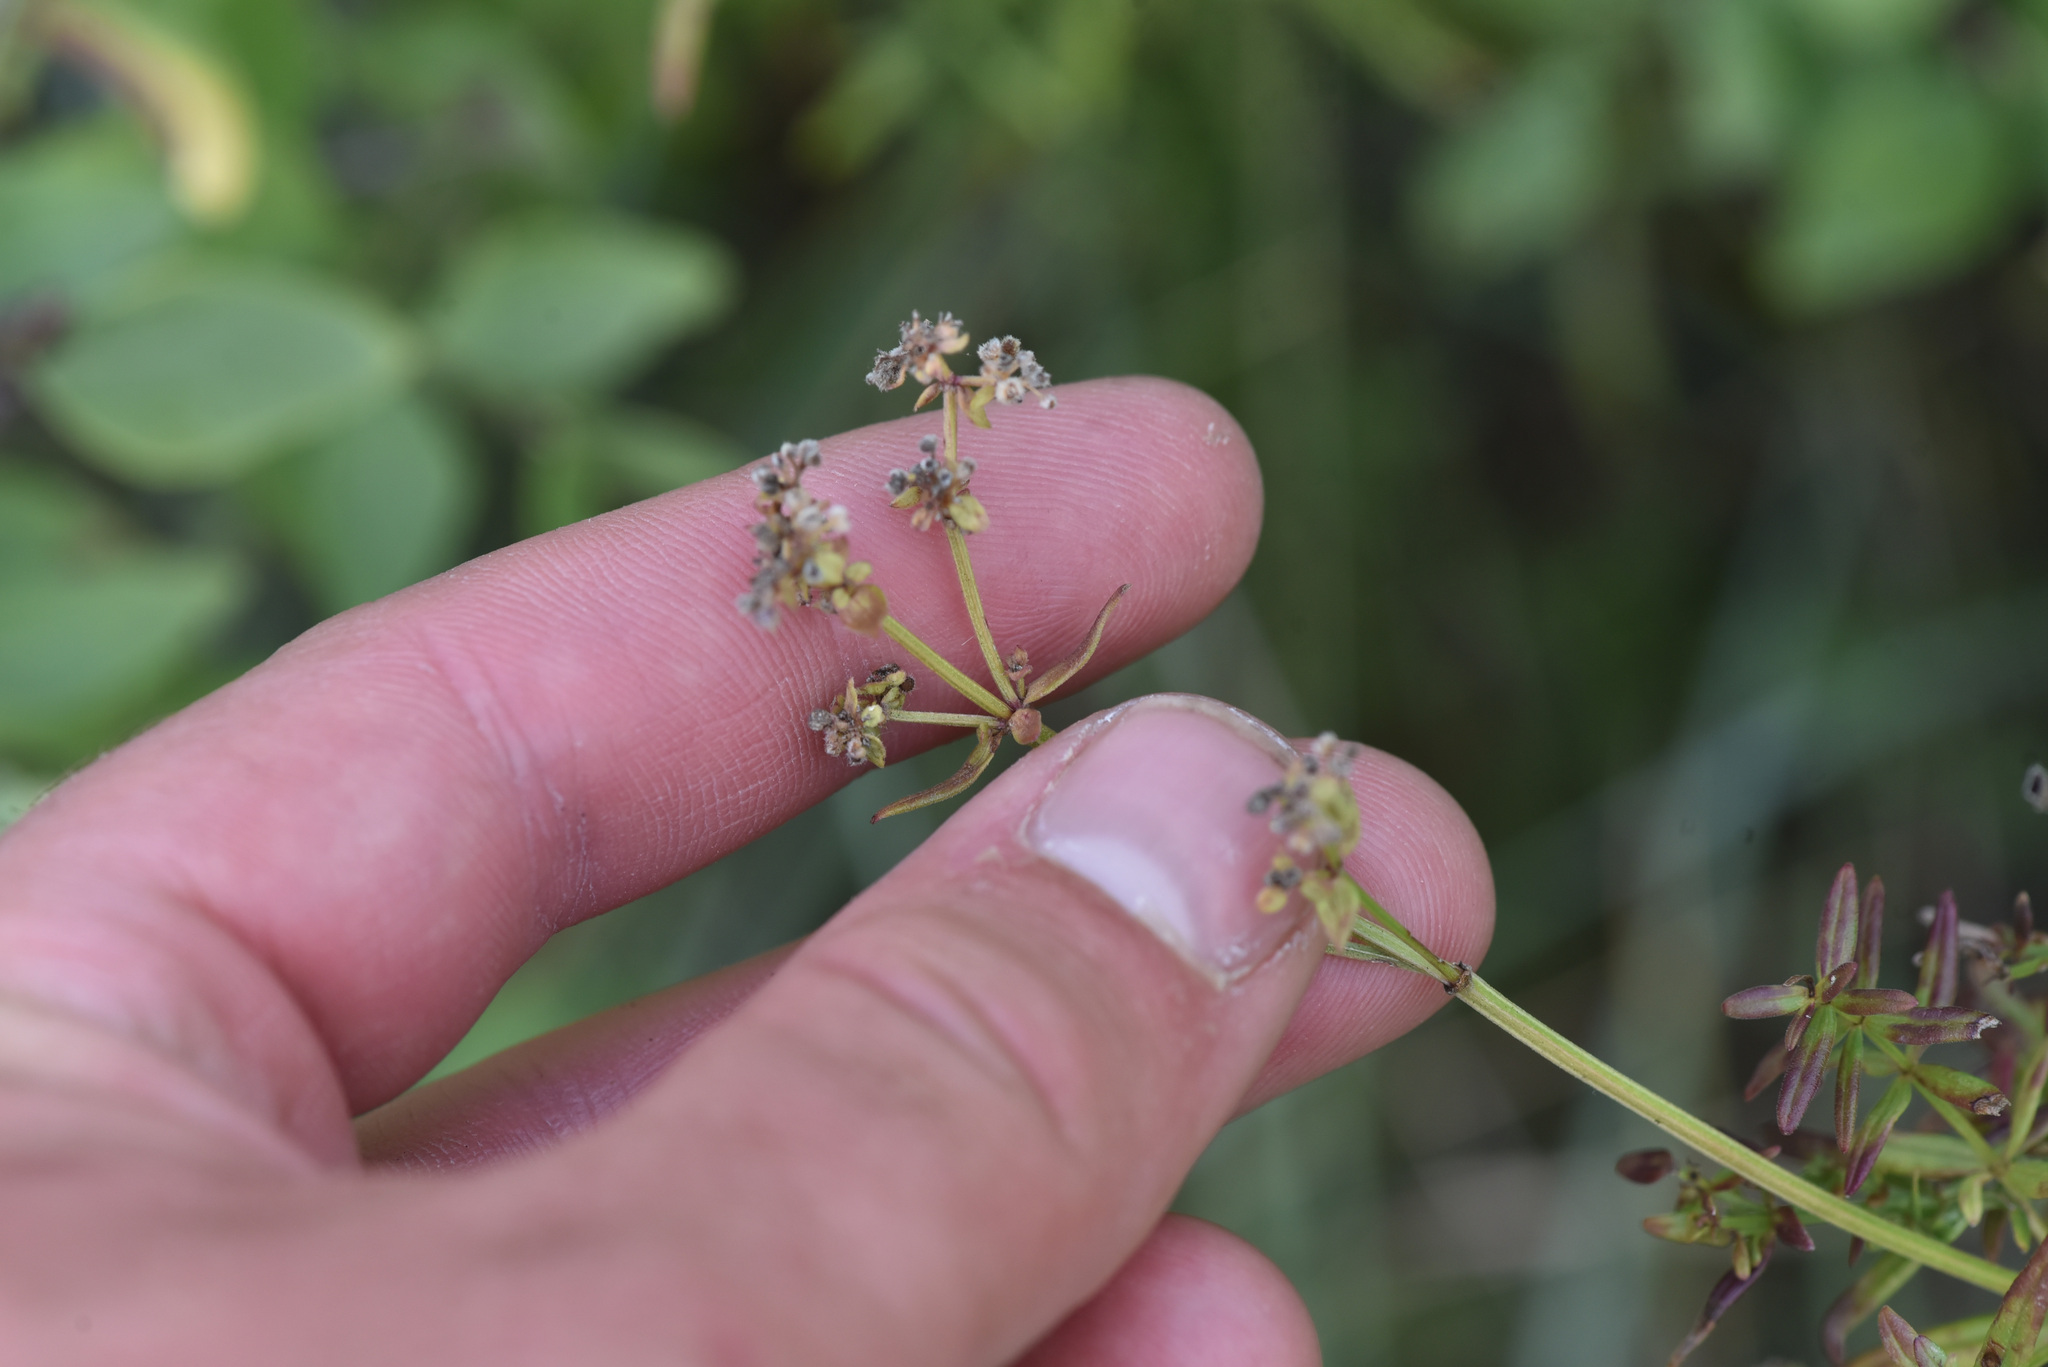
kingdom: Plantae
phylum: Tracheophyta
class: Magnoliopsida
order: Gentianales
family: Rubiaceae
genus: Galium
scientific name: Galium boreale
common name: Northern bedstraw
